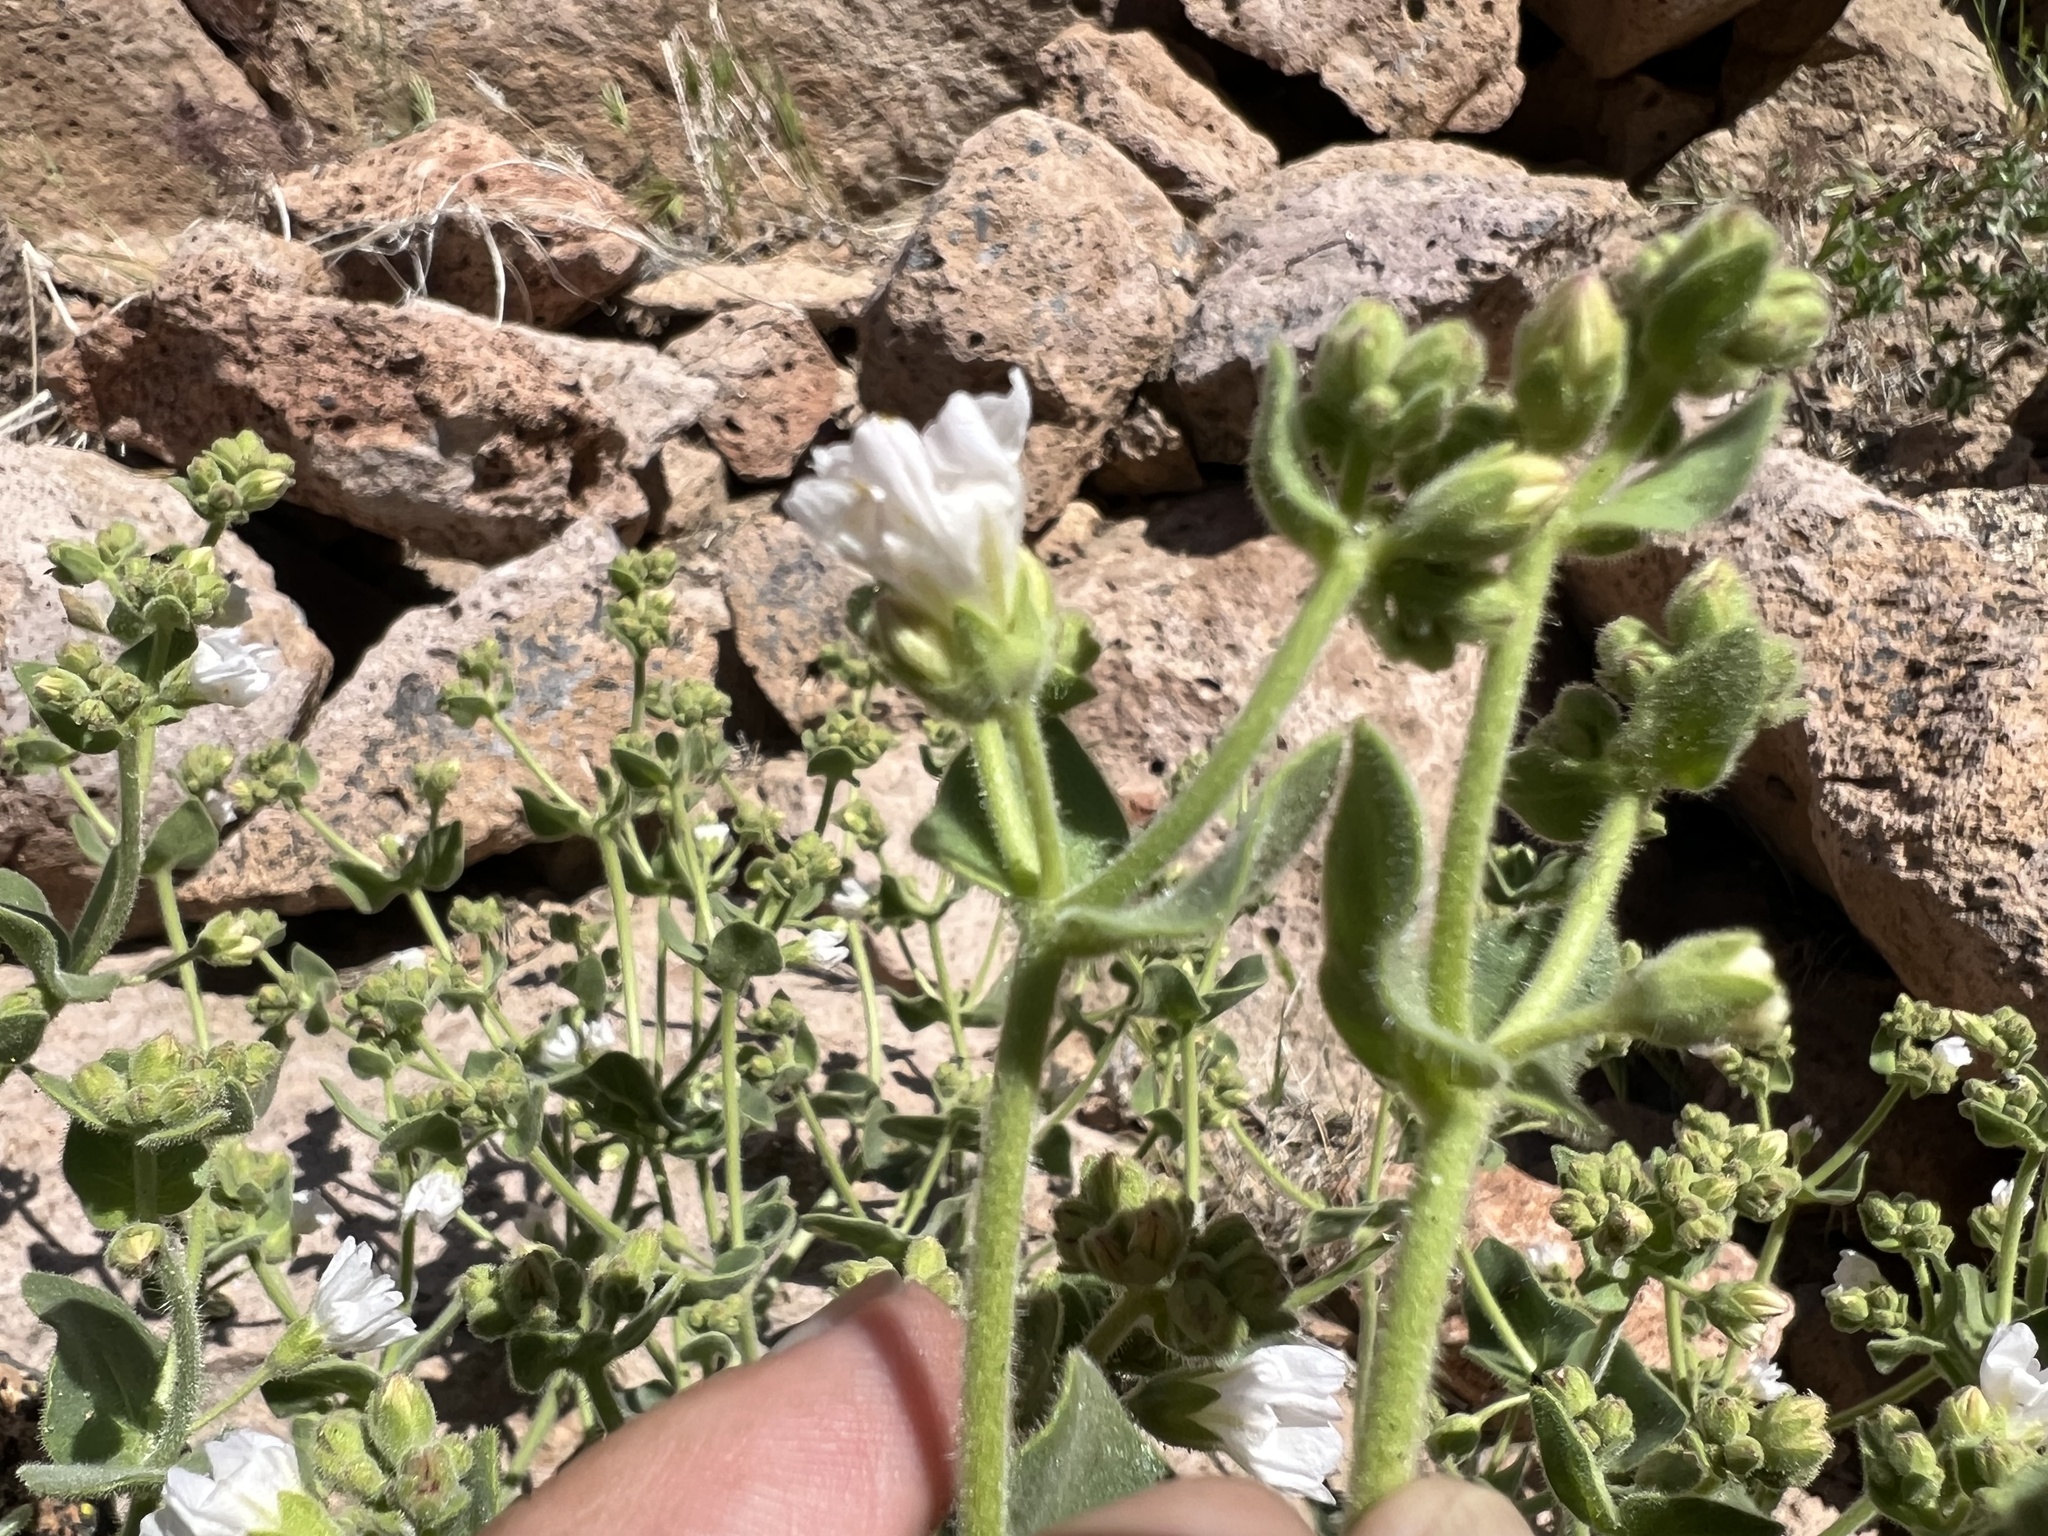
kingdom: Plantae
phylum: Tracheophyta
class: Magnoliopsida
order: Caryophyllales
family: Nyctaginaceae
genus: Mirabilis
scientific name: Mirabilis laevis
